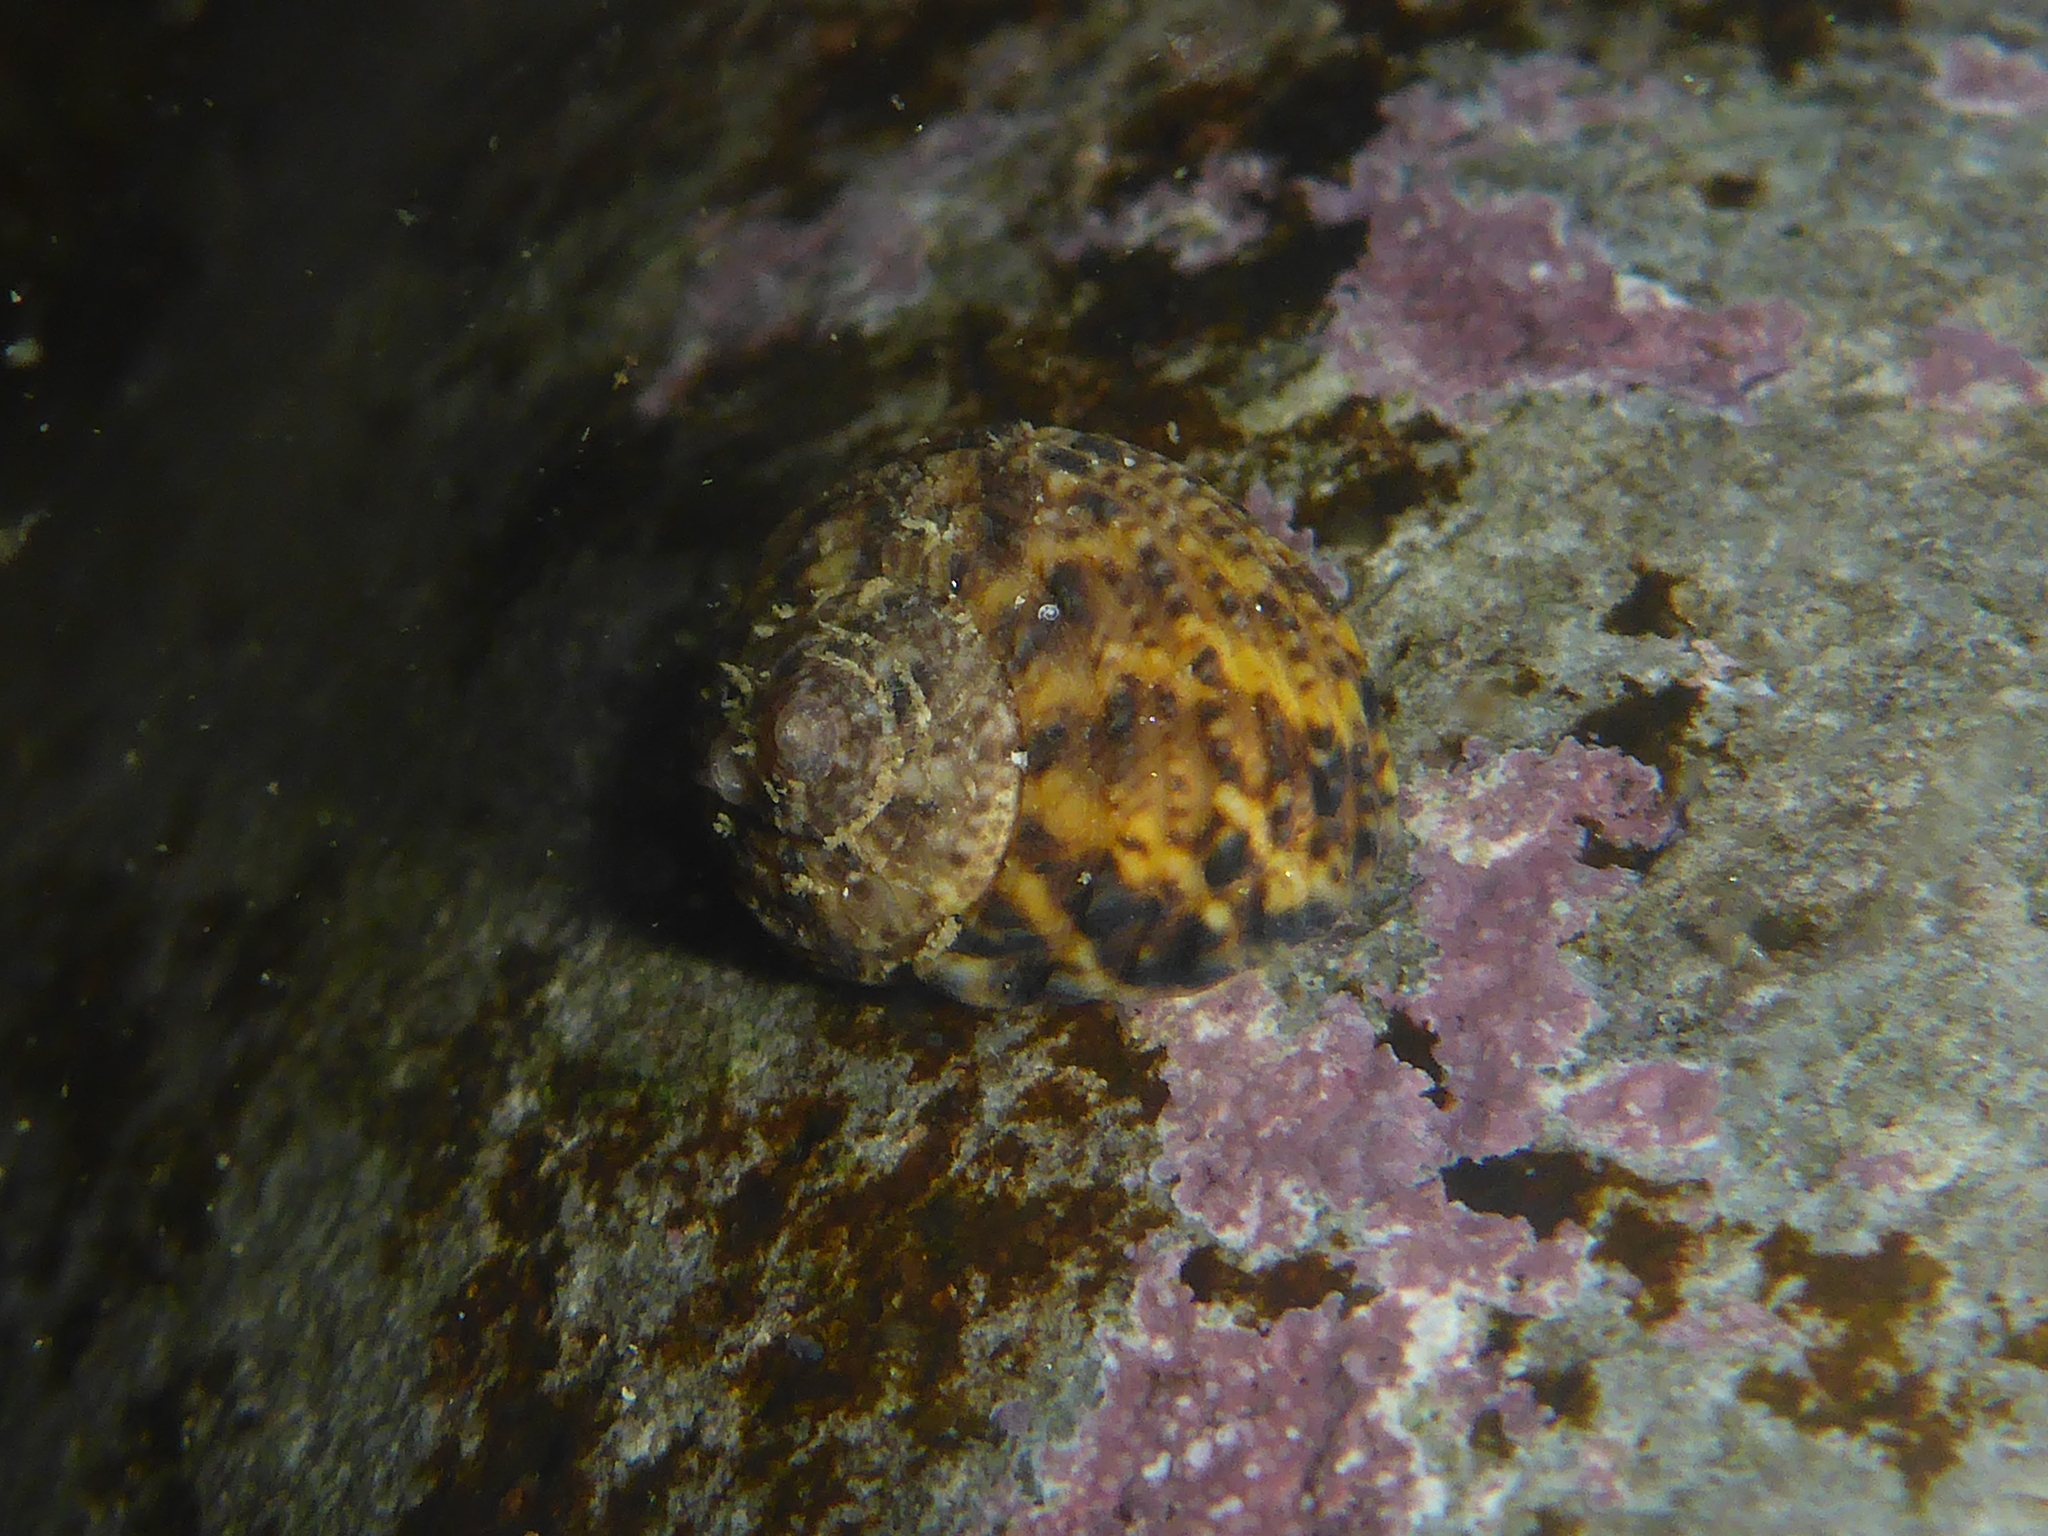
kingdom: Animalia
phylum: Mollusca
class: Gastropoda
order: Trochida
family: Tegulidae
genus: Tegula
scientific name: Tegula eiseni
